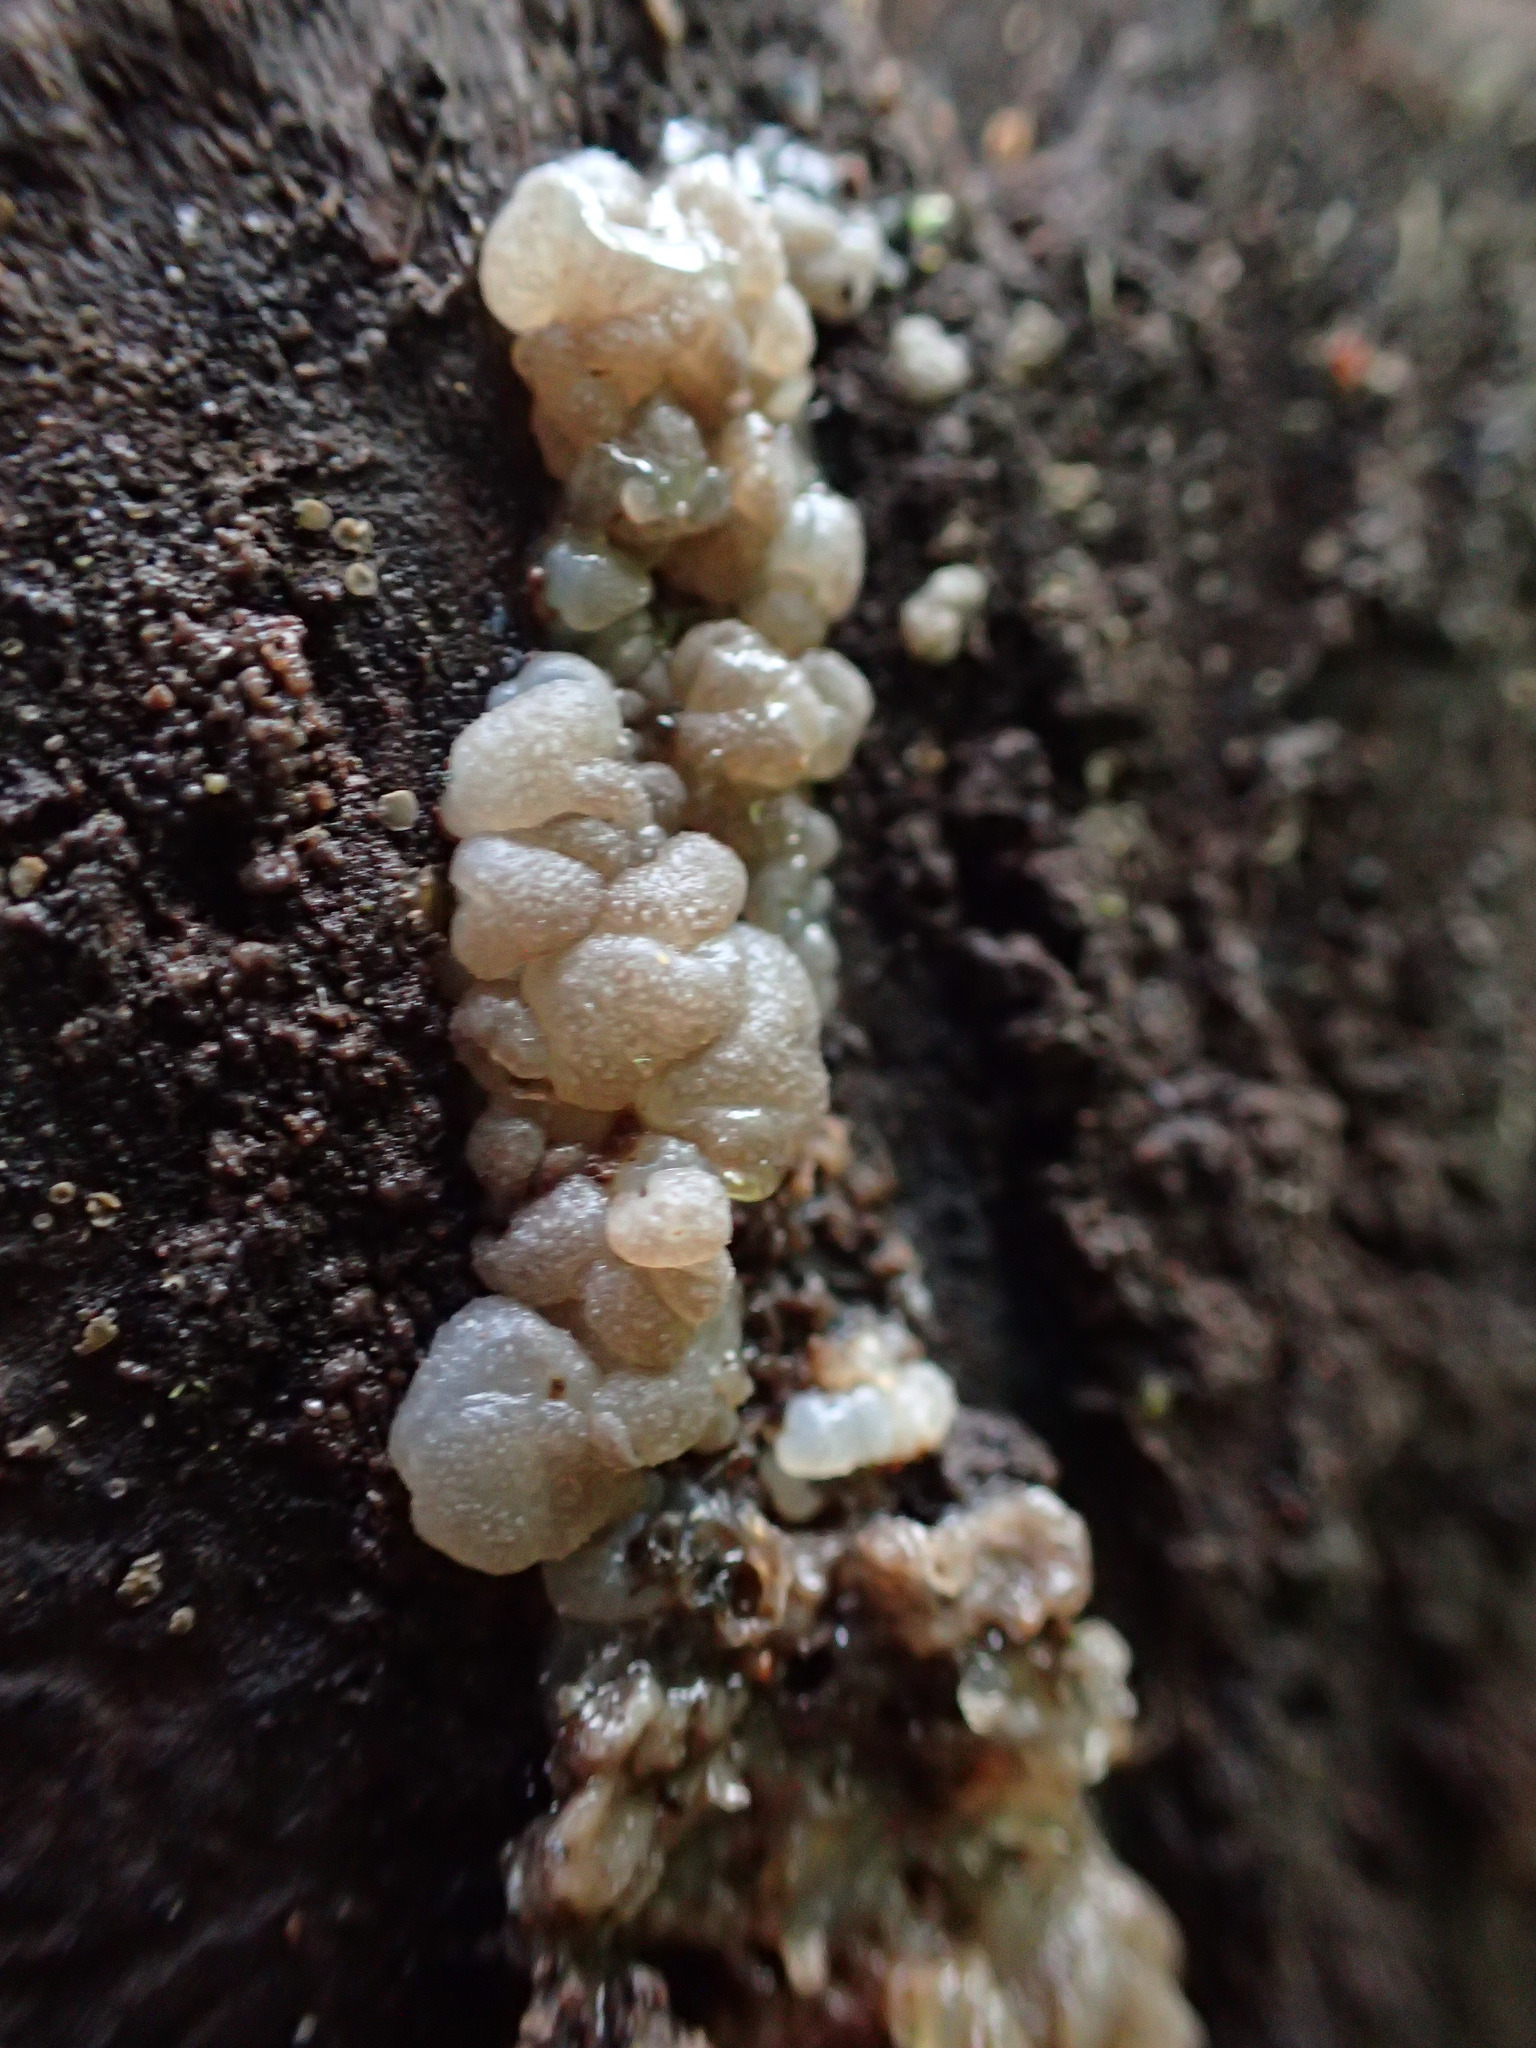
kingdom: Fungi
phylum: Basidiomycota
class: Agaricomycetes
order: Auriculariales
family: Auriculariaceae
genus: Tremellochaete
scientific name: Tremellochaete
